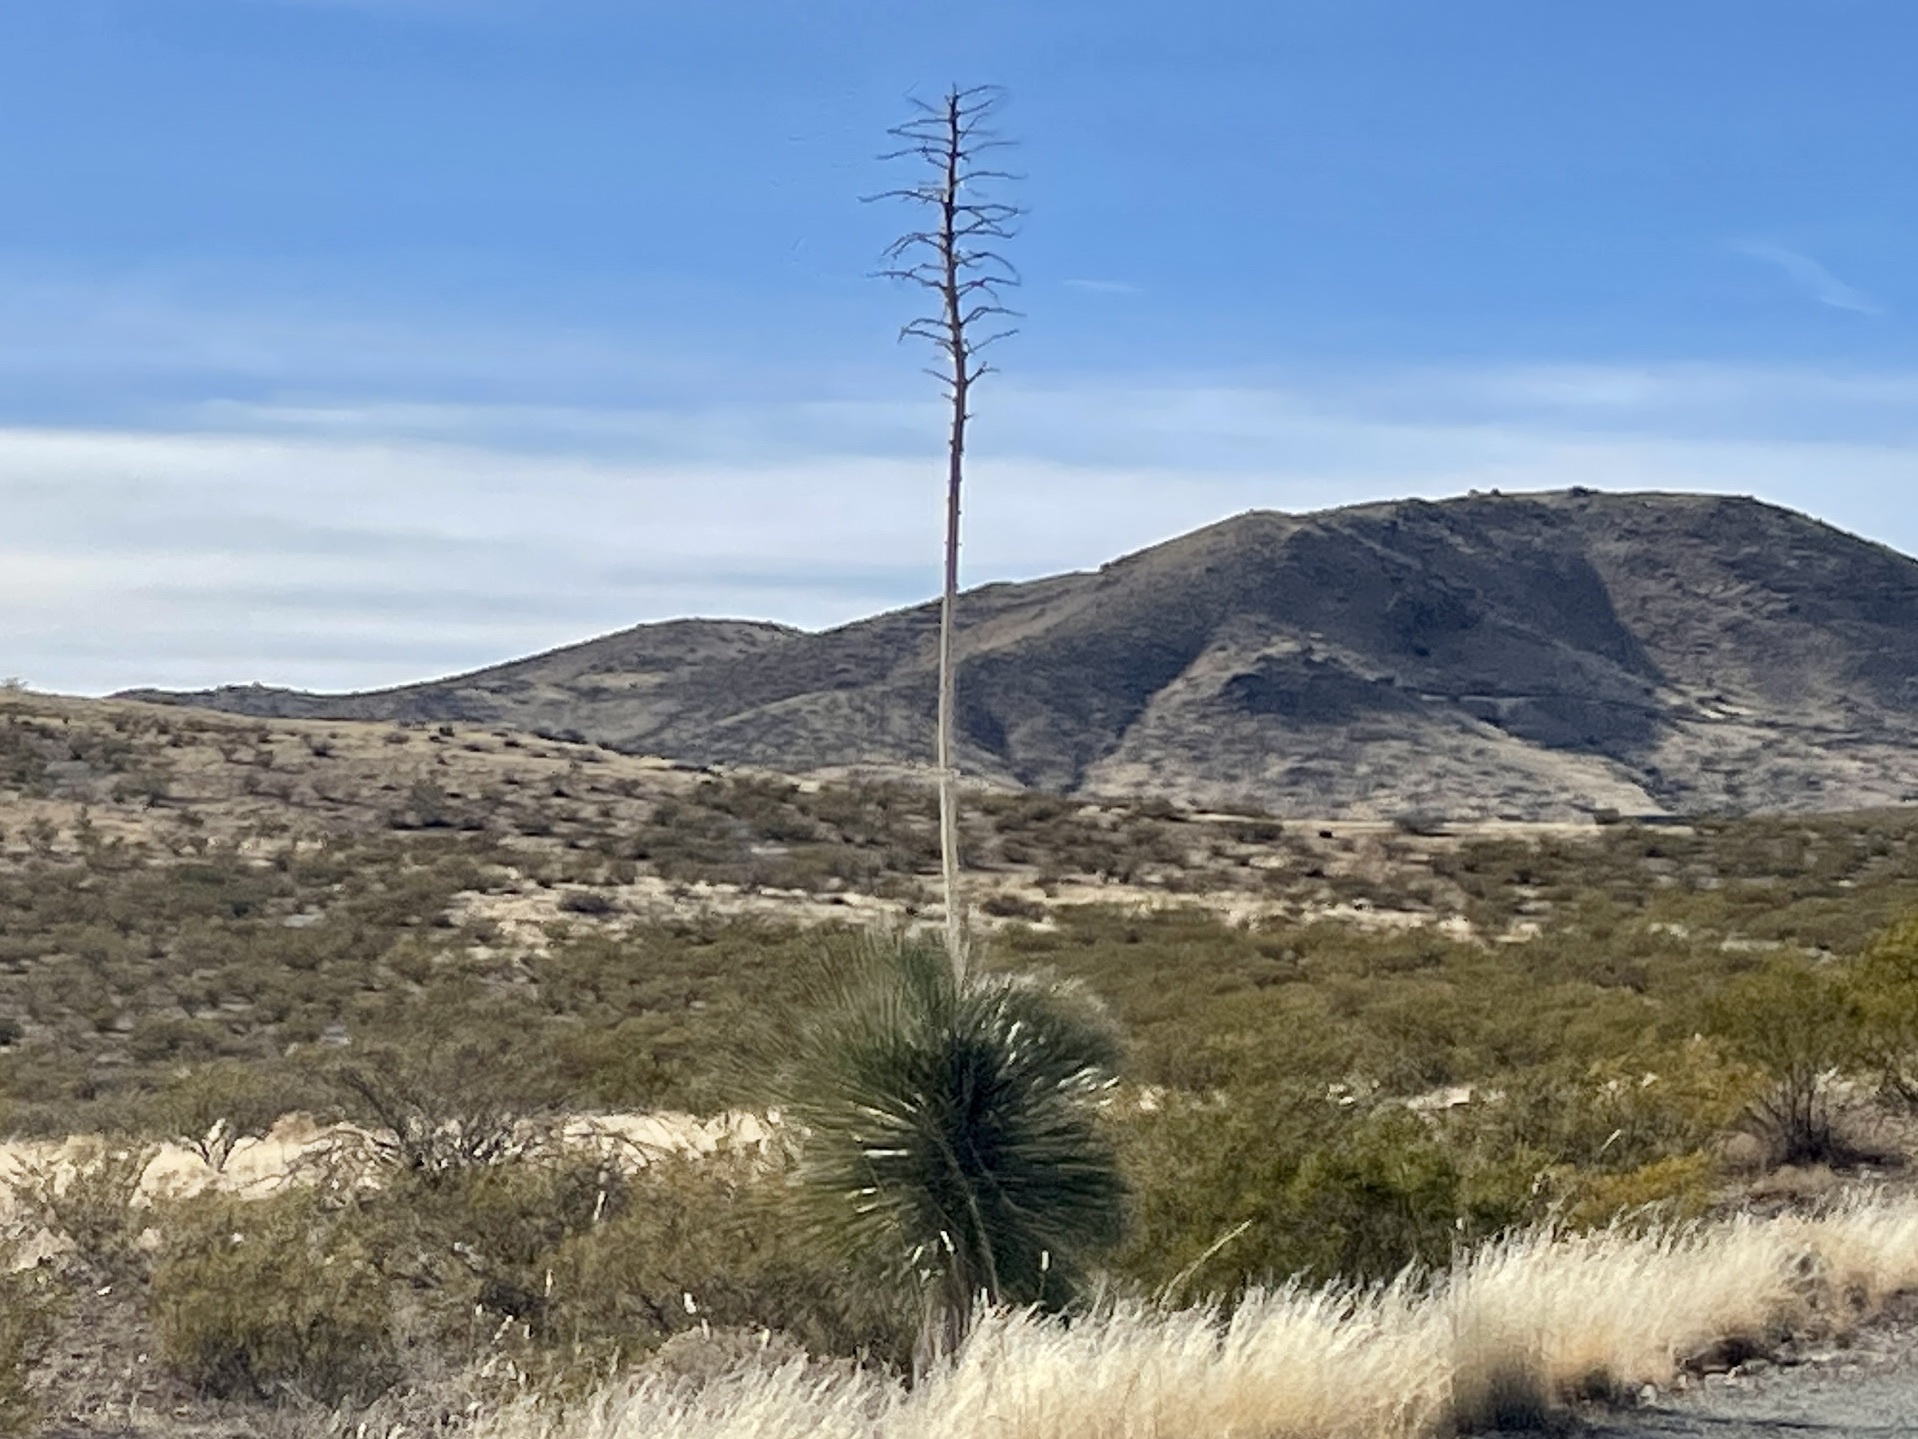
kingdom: Plantae
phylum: Tracheophyta
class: Liliopsida
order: Asparagales
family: Asparagaceae
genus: Yucca
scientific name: Yucca elata
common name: Palmella
